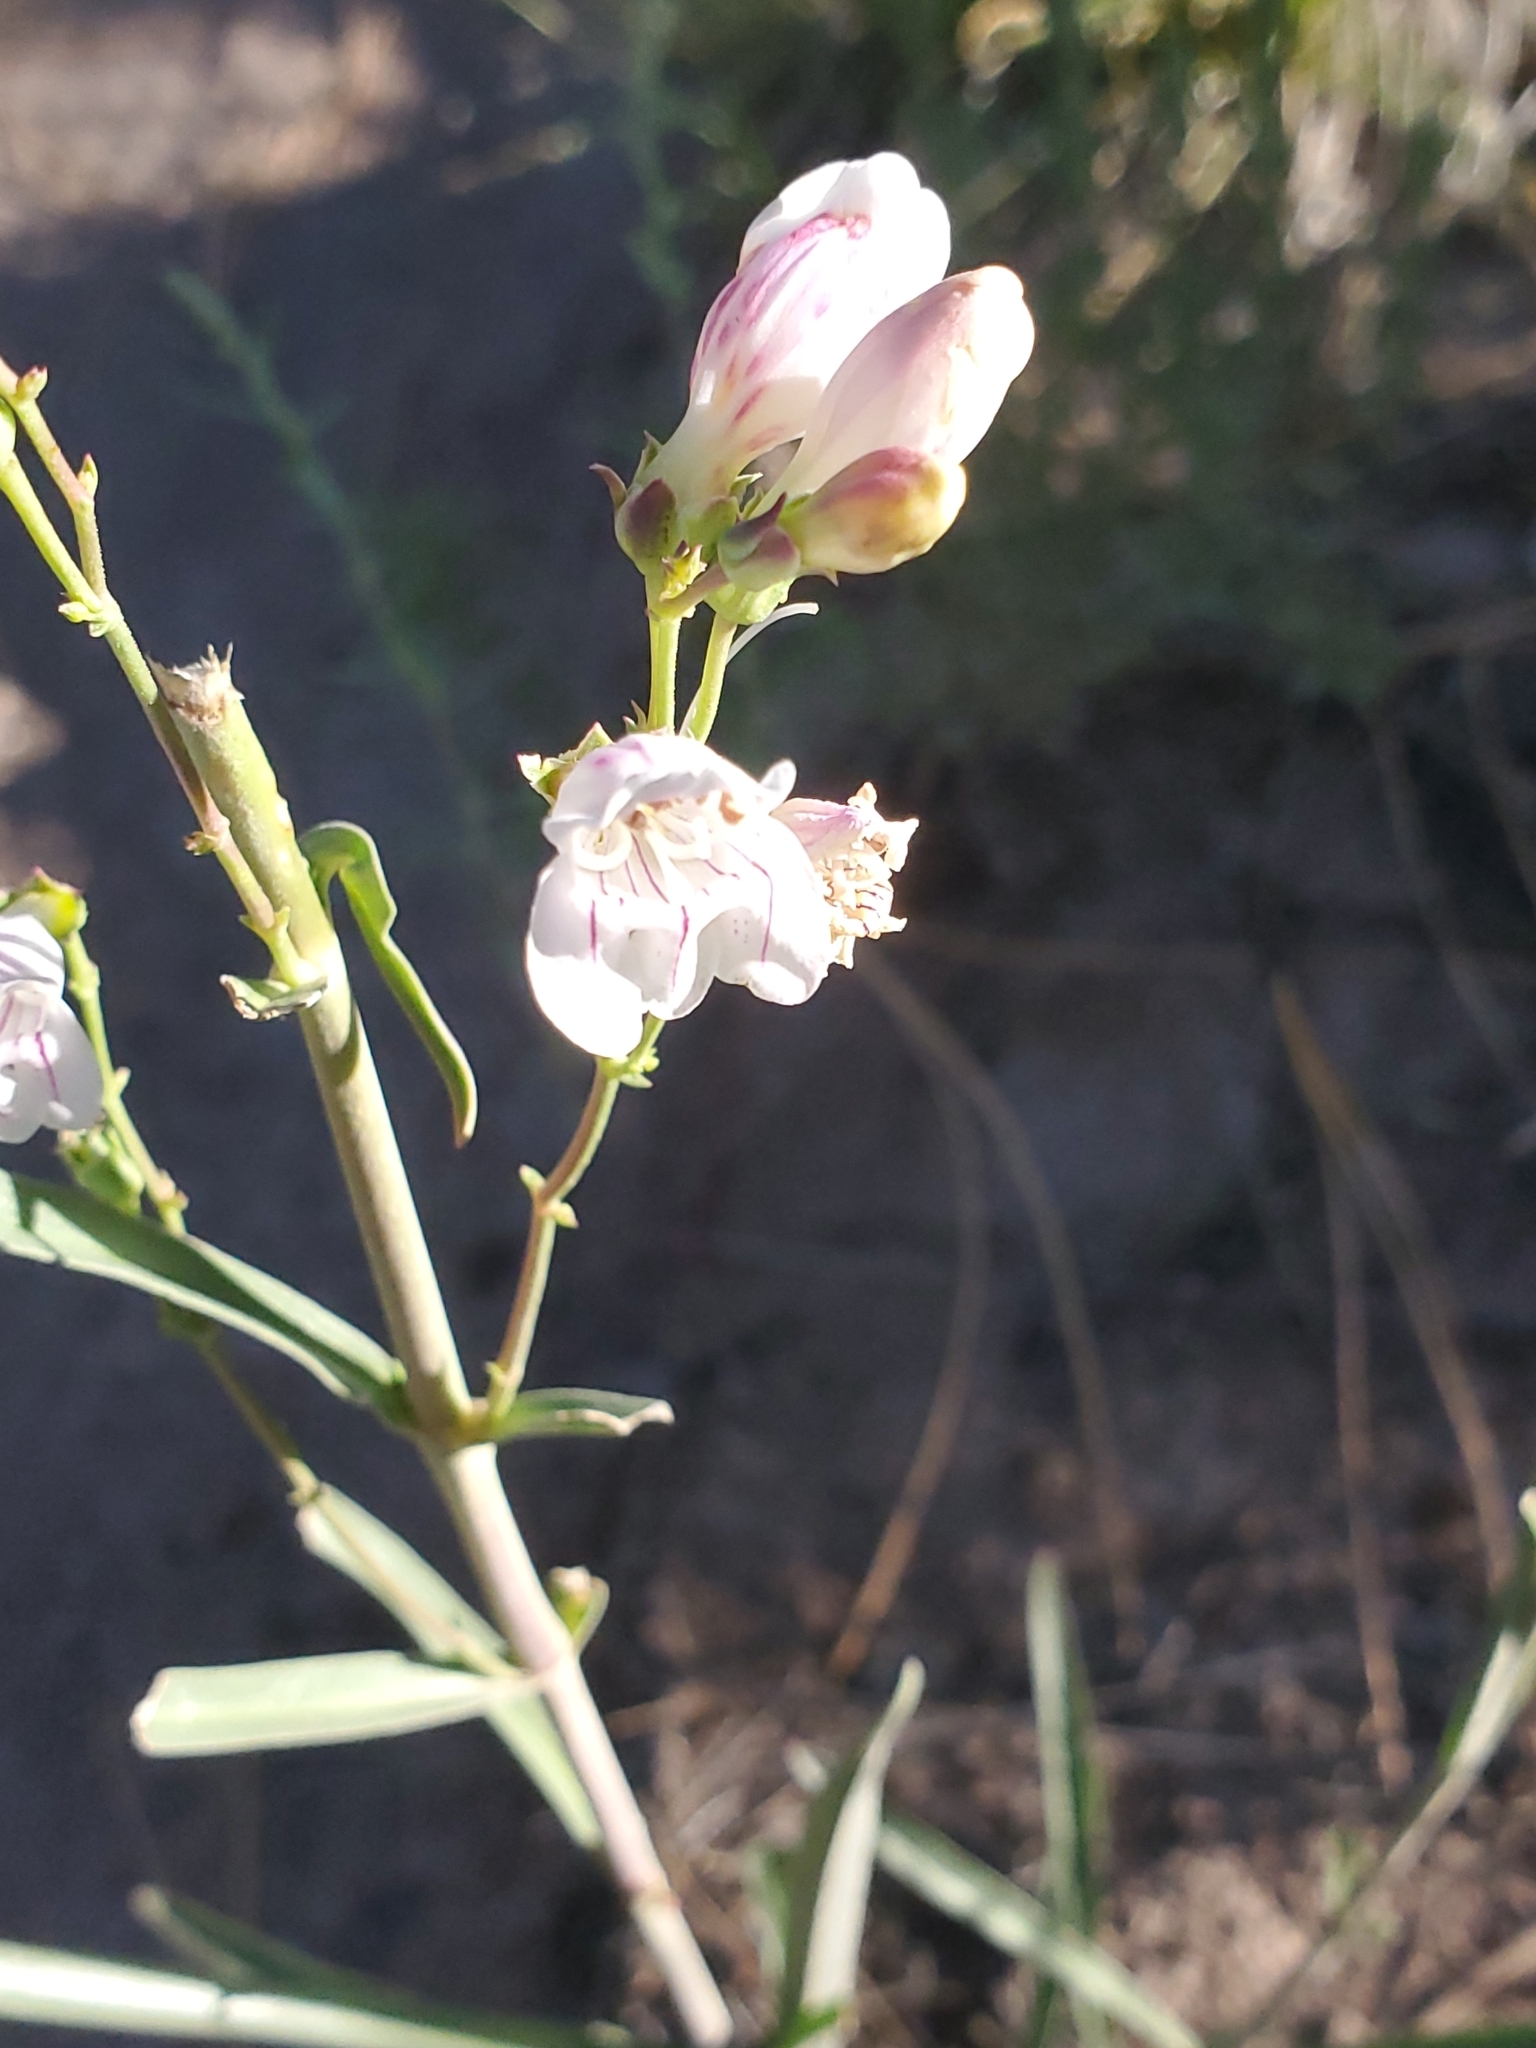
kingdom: Plantae
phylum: Tracheophyta
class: Magnoliopsida
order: Lamiales
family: Plantaginaceae
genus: Penstemon
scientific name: Penstemon virgatus
